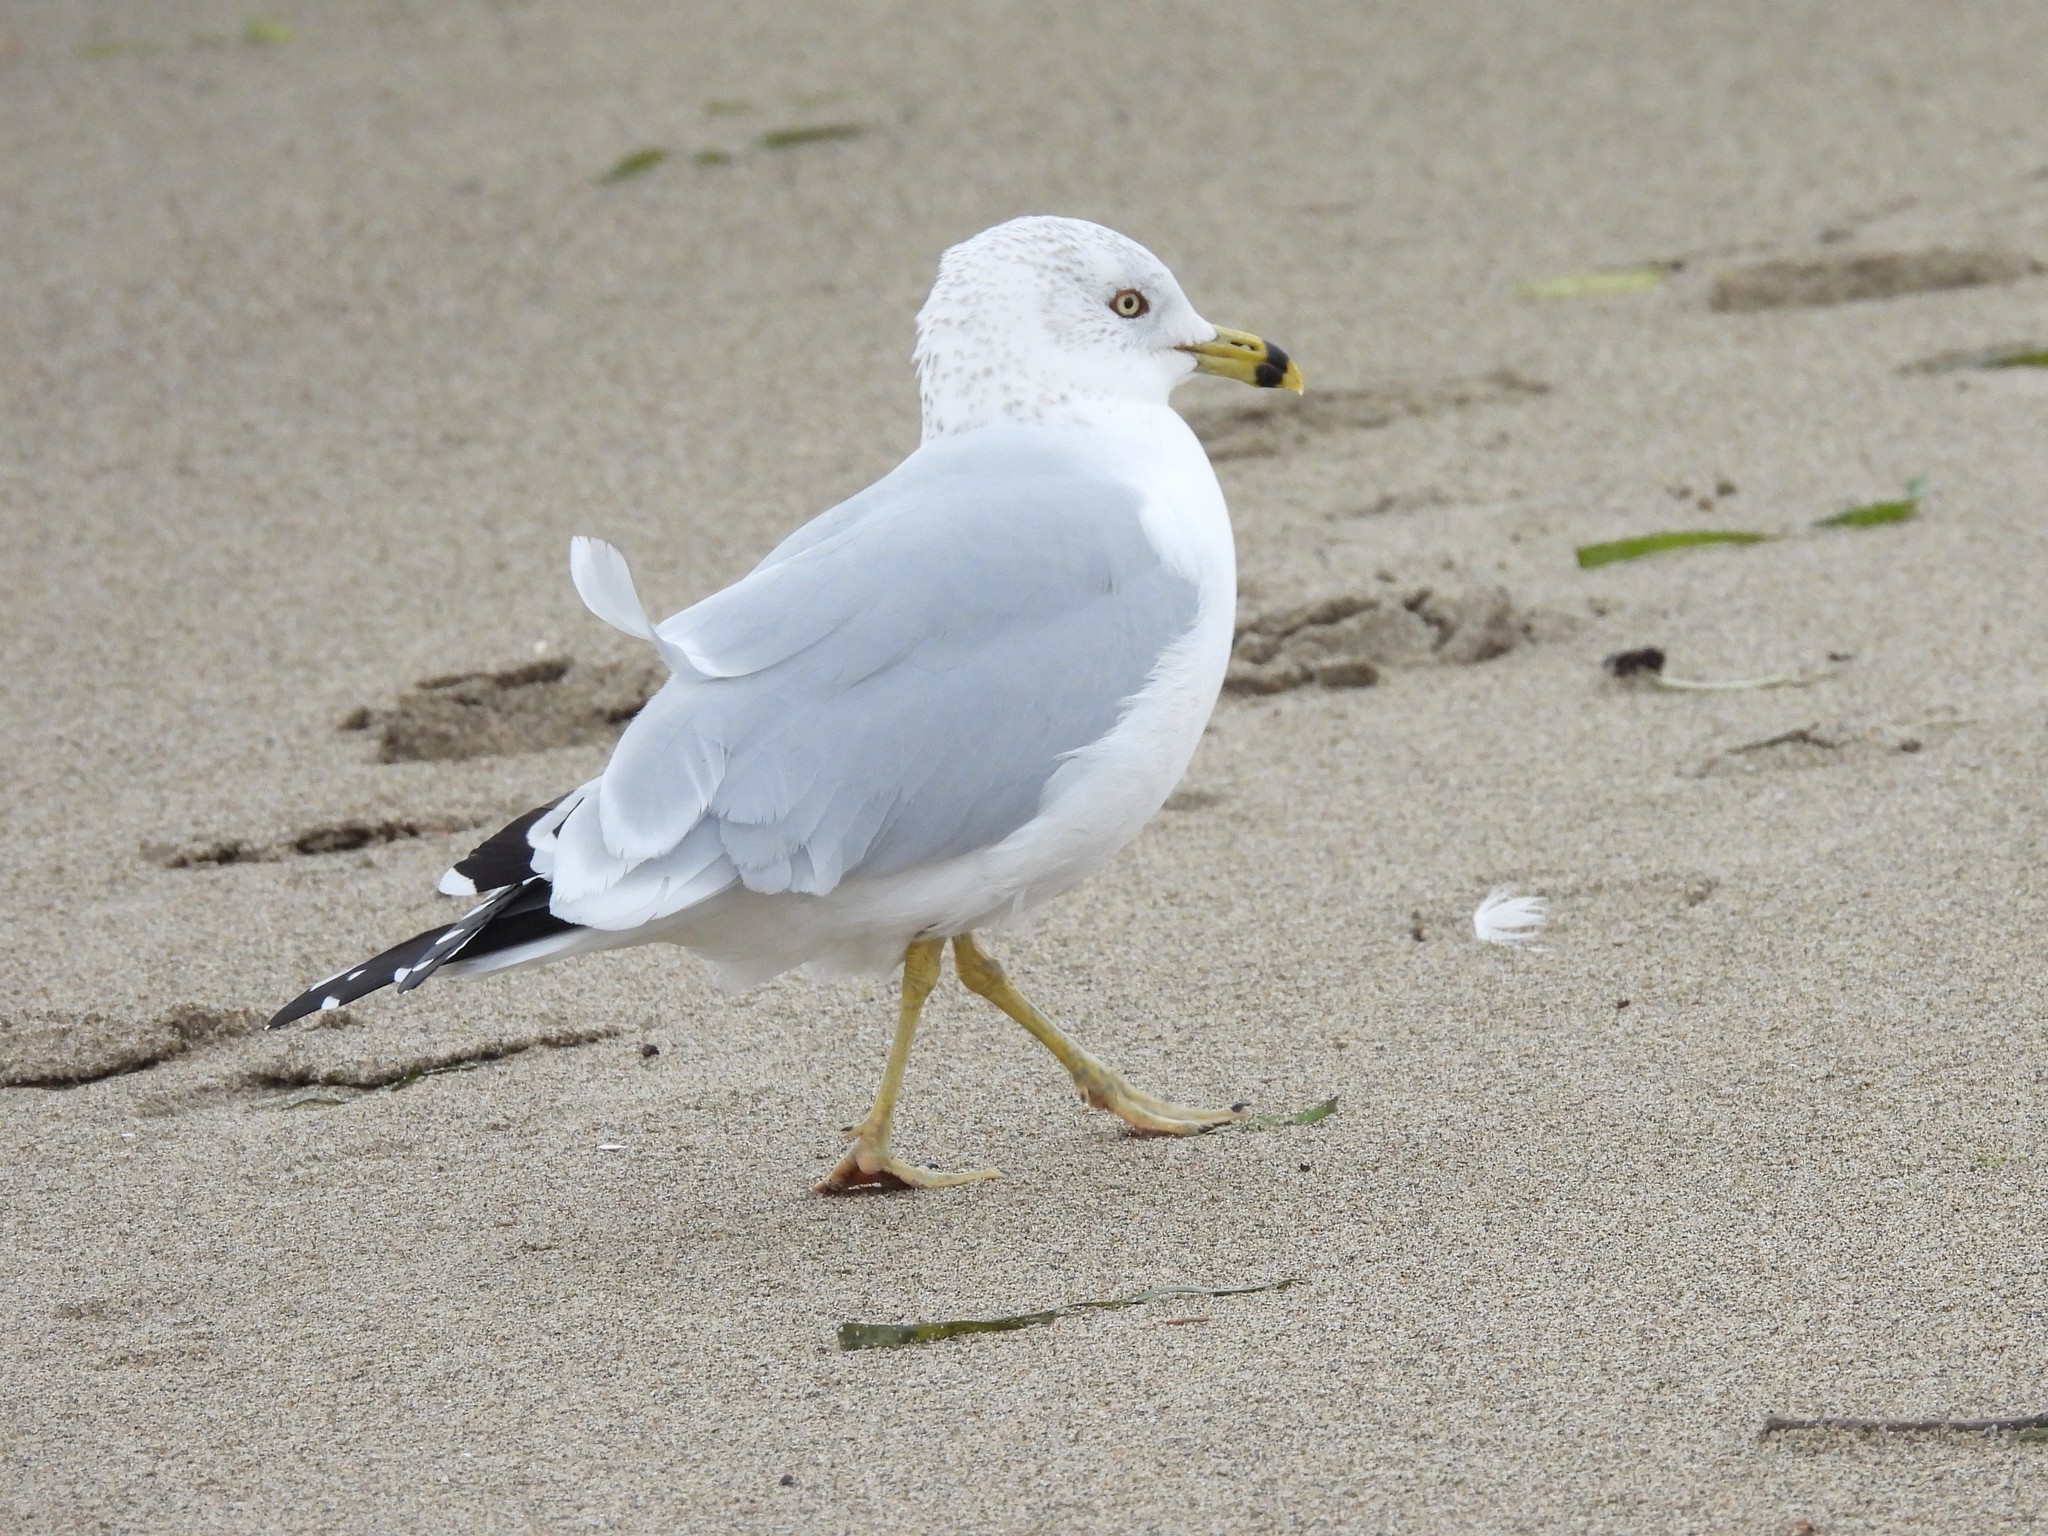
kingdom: Animalia
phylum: Chordata
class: Aves
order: Charadriiformes
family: Laridae
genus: Larus
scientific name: Larus delawarensis
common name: Ring-billed gull
